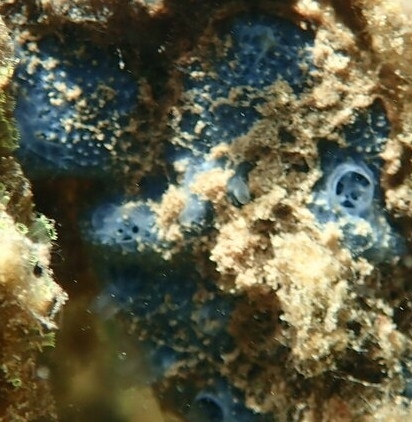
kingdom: Animalia
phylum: Porifera
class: Demospongiae
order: Dictyoceratida
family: Dysideidae
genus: Dysidea
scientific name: Dysidea etheria
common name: Heavenly sponge
